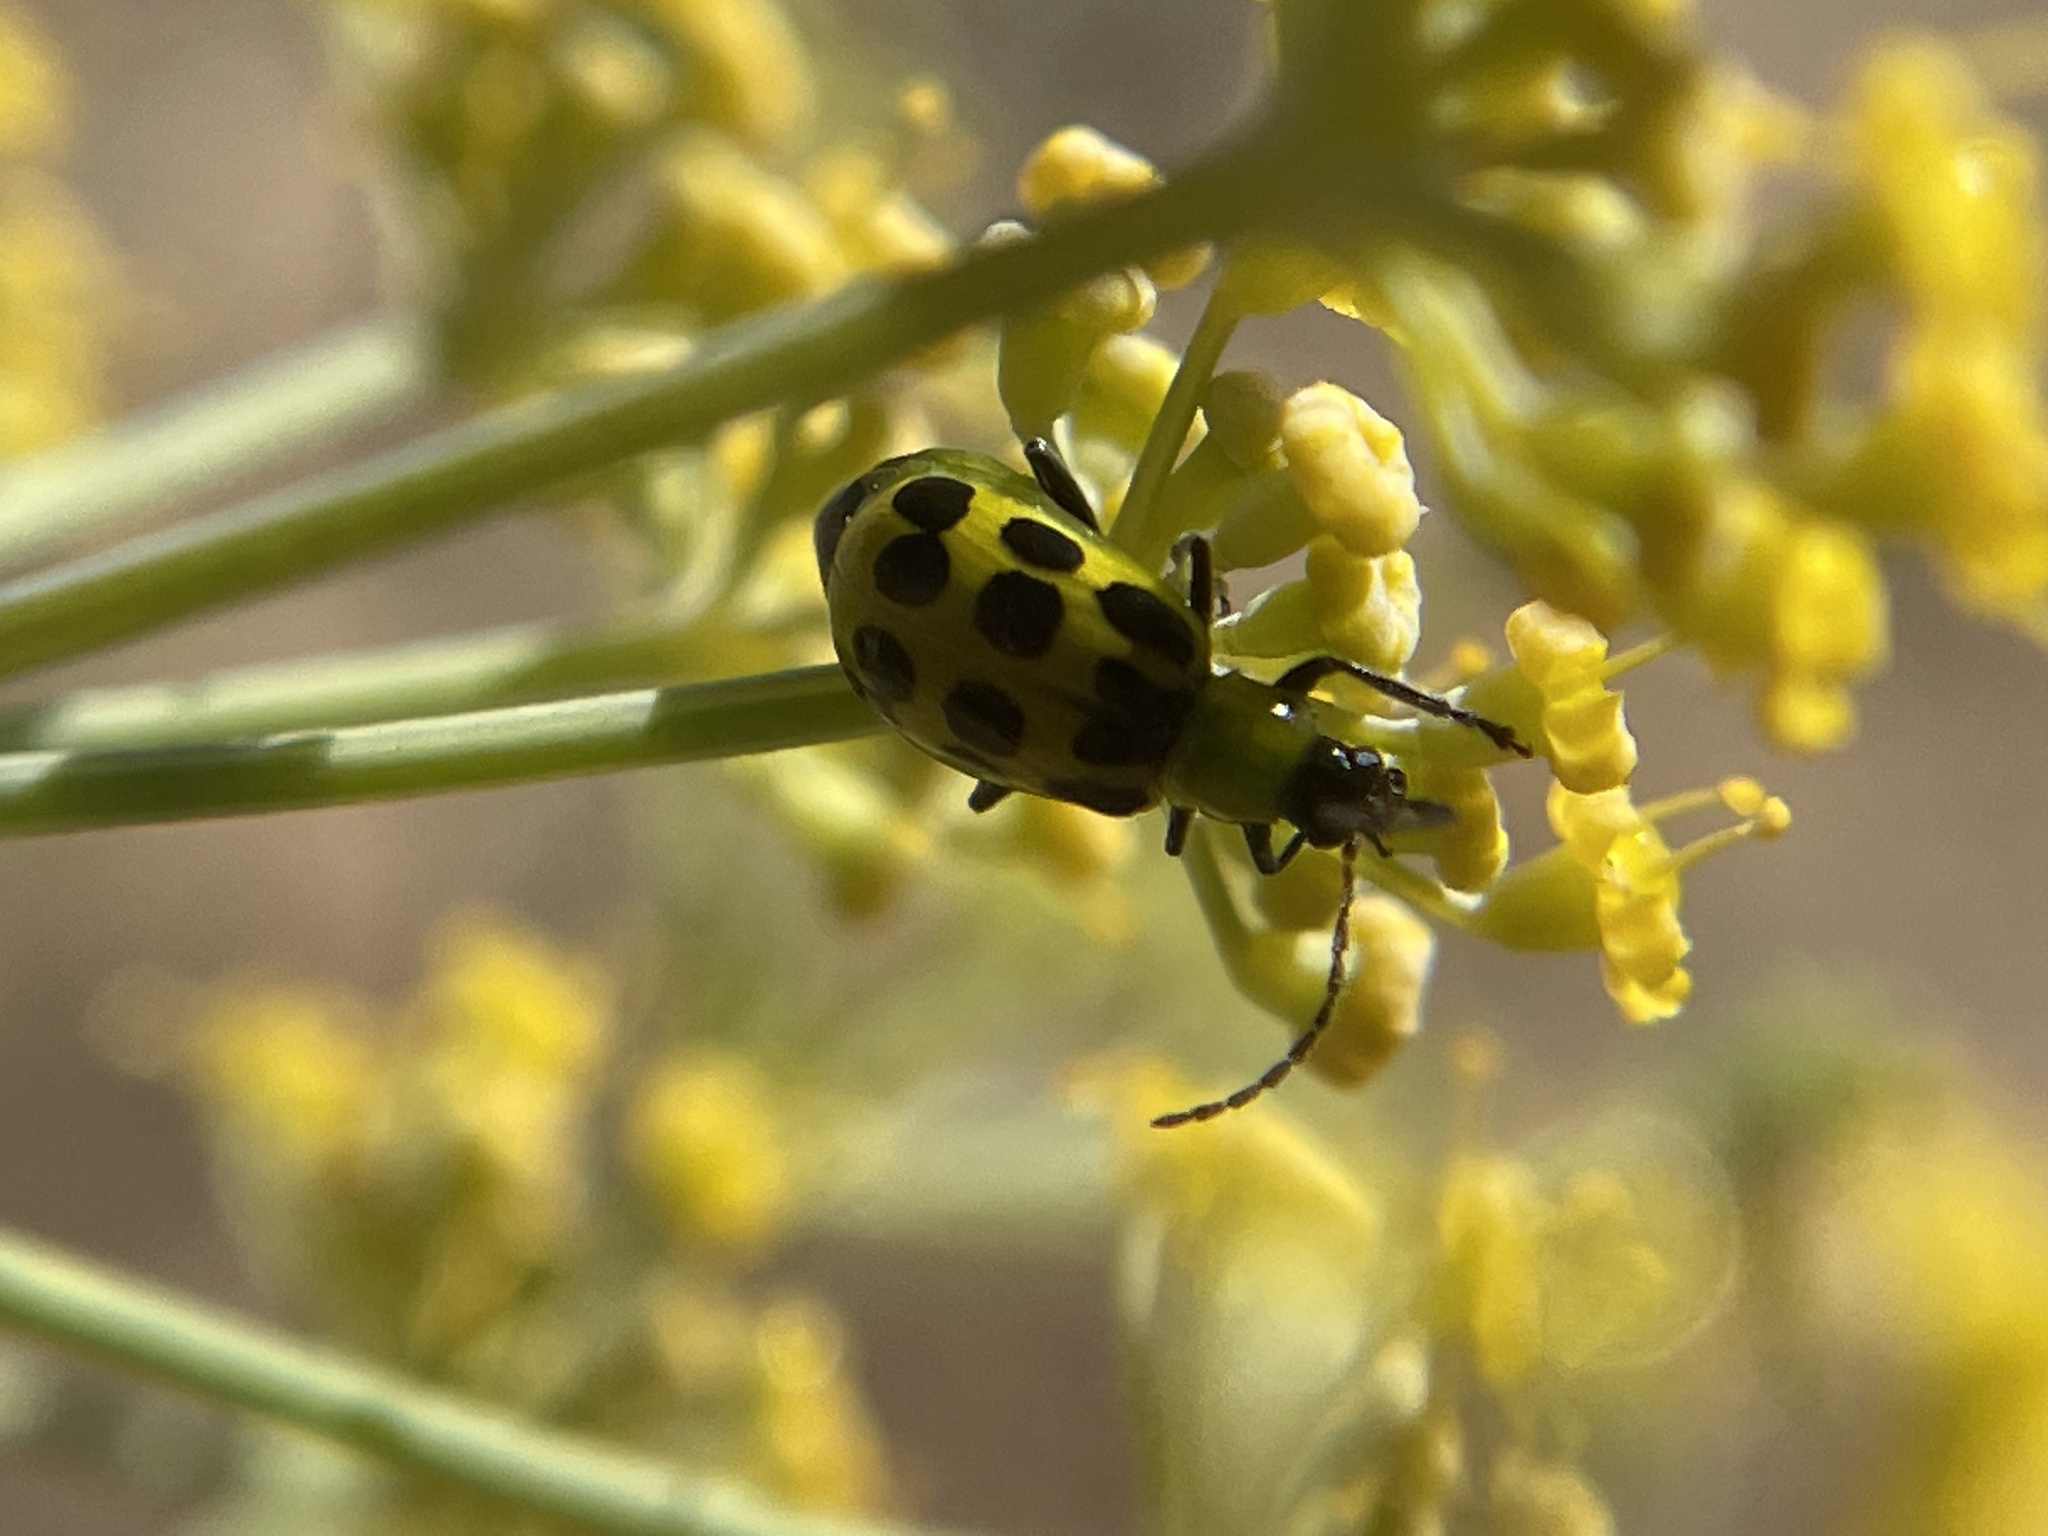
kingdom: Animalia
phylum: Arthropoda
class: Insecta
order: Coleoptera
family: Chrysomelidae
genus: Diabrotica
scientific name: Diabrotica undecimpunctata
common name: Spotted cucumber beetle
